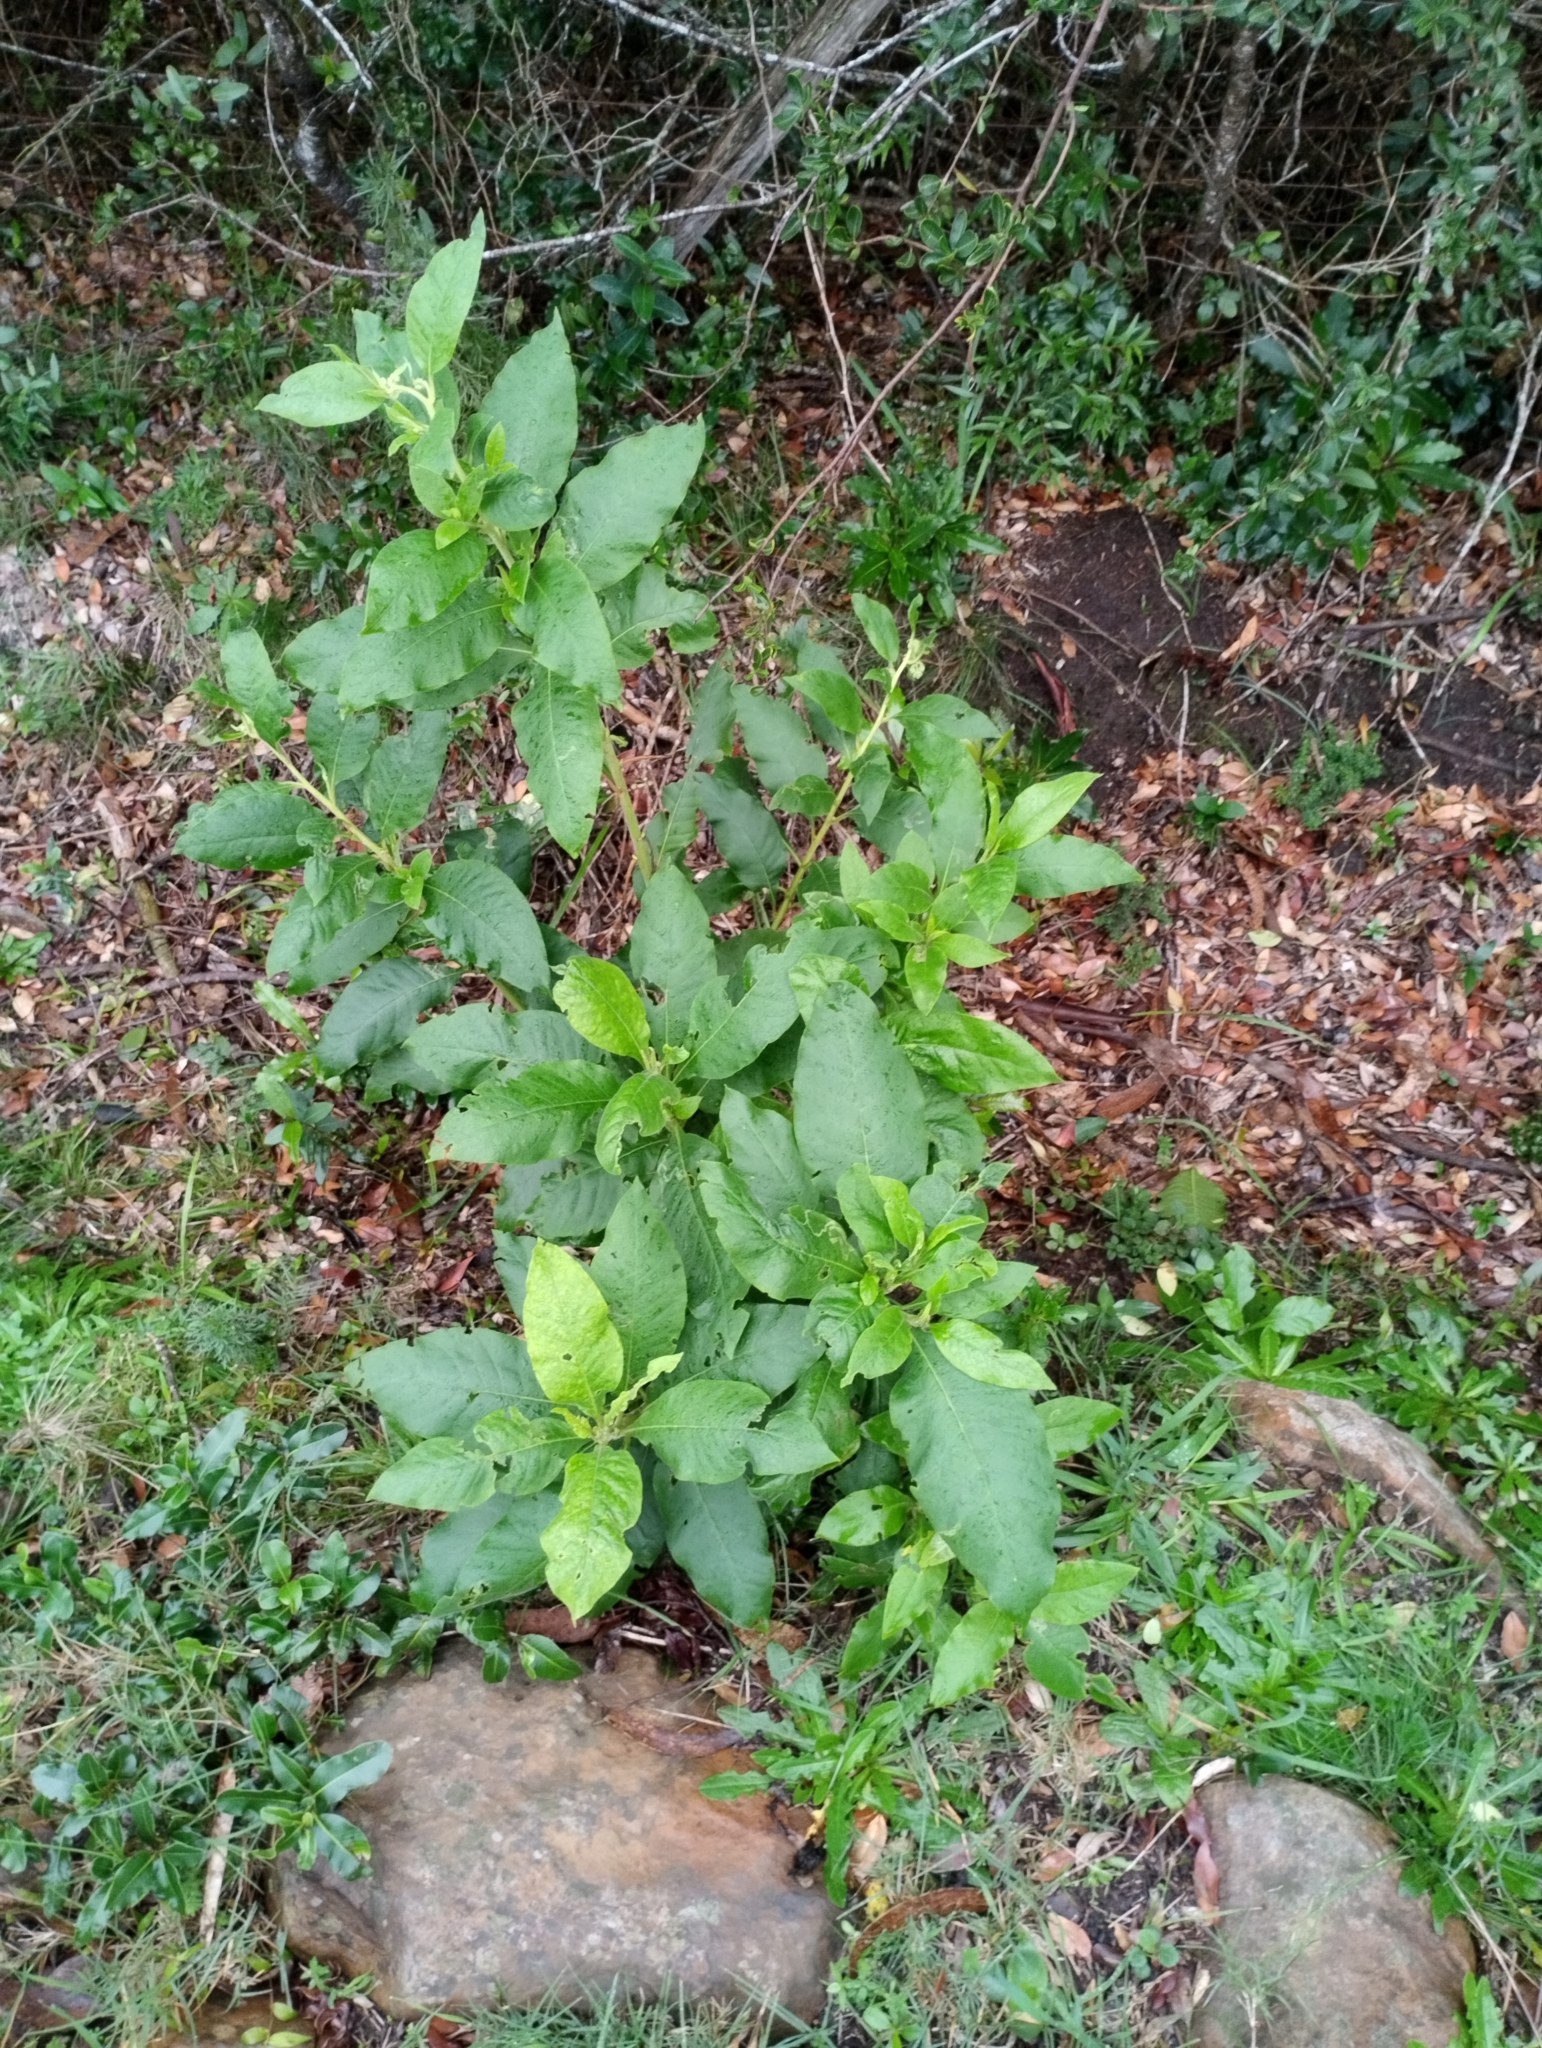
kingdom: Plantae
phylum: Tracheophyta
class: Magnoliopsida
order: Asterales
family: Asteraceae
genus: Trixis
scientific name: Trixis praestans
